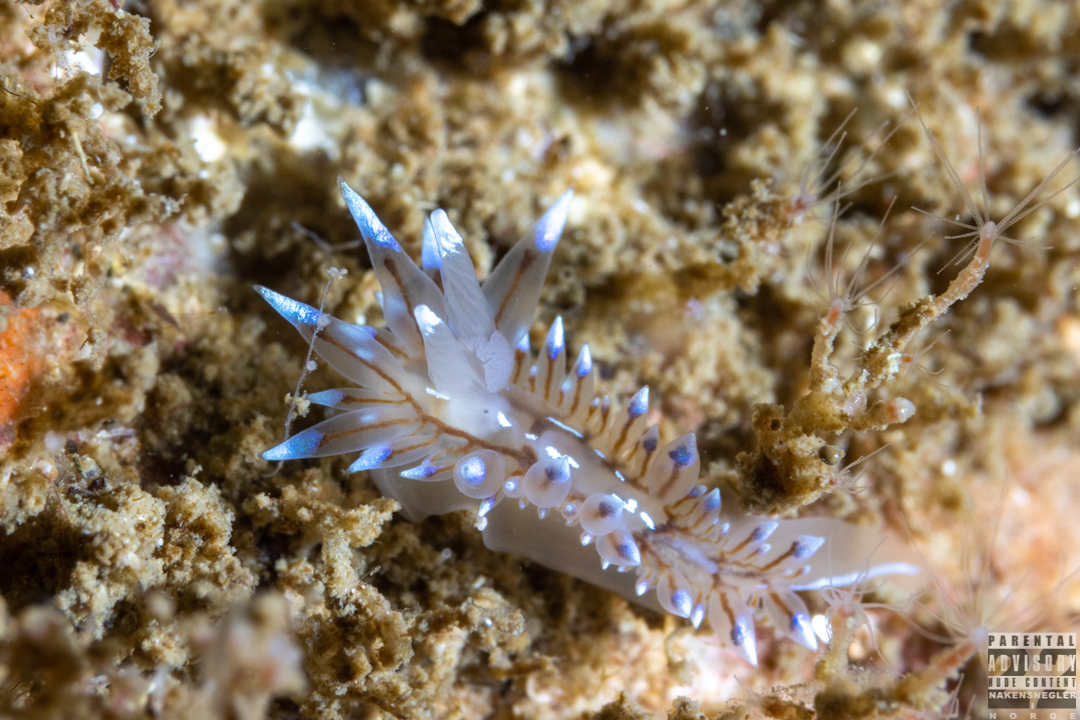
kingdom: Animalia
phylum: Mollusca
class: Gastropoda
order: Nudibranchia
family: Janolidae
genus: Antiopella
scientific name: Antiopella cristata
